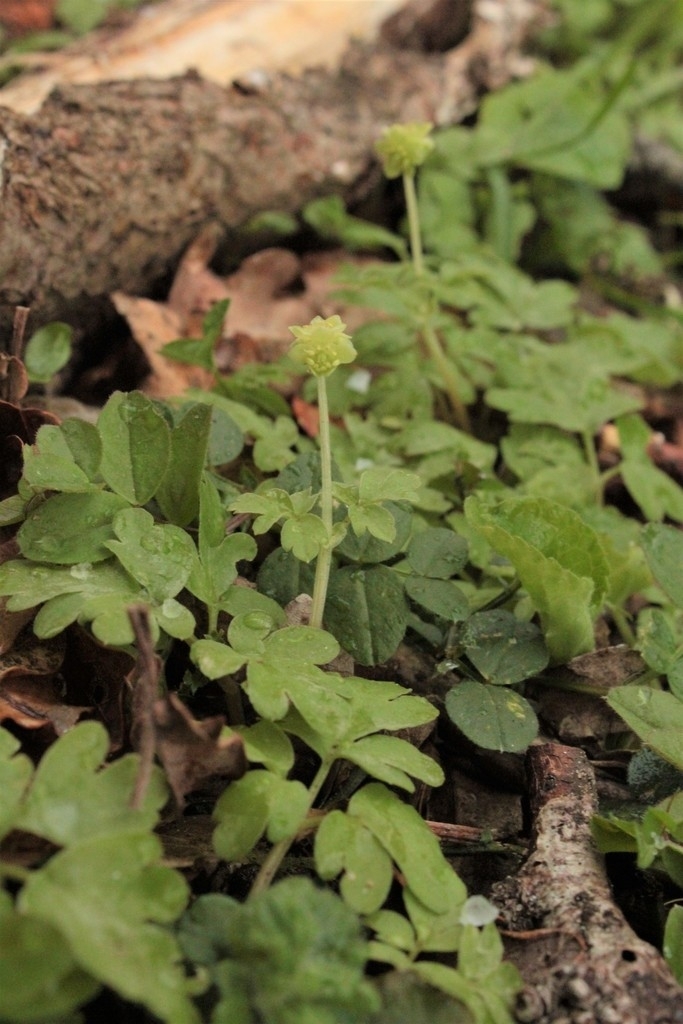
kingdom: Plantae
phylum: Tracheophyta
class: Magnoliopsida
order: Dipsacales
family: Viburnaceae
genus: Adoxa
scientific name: Adoxa moschatellina
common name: Moschatel
